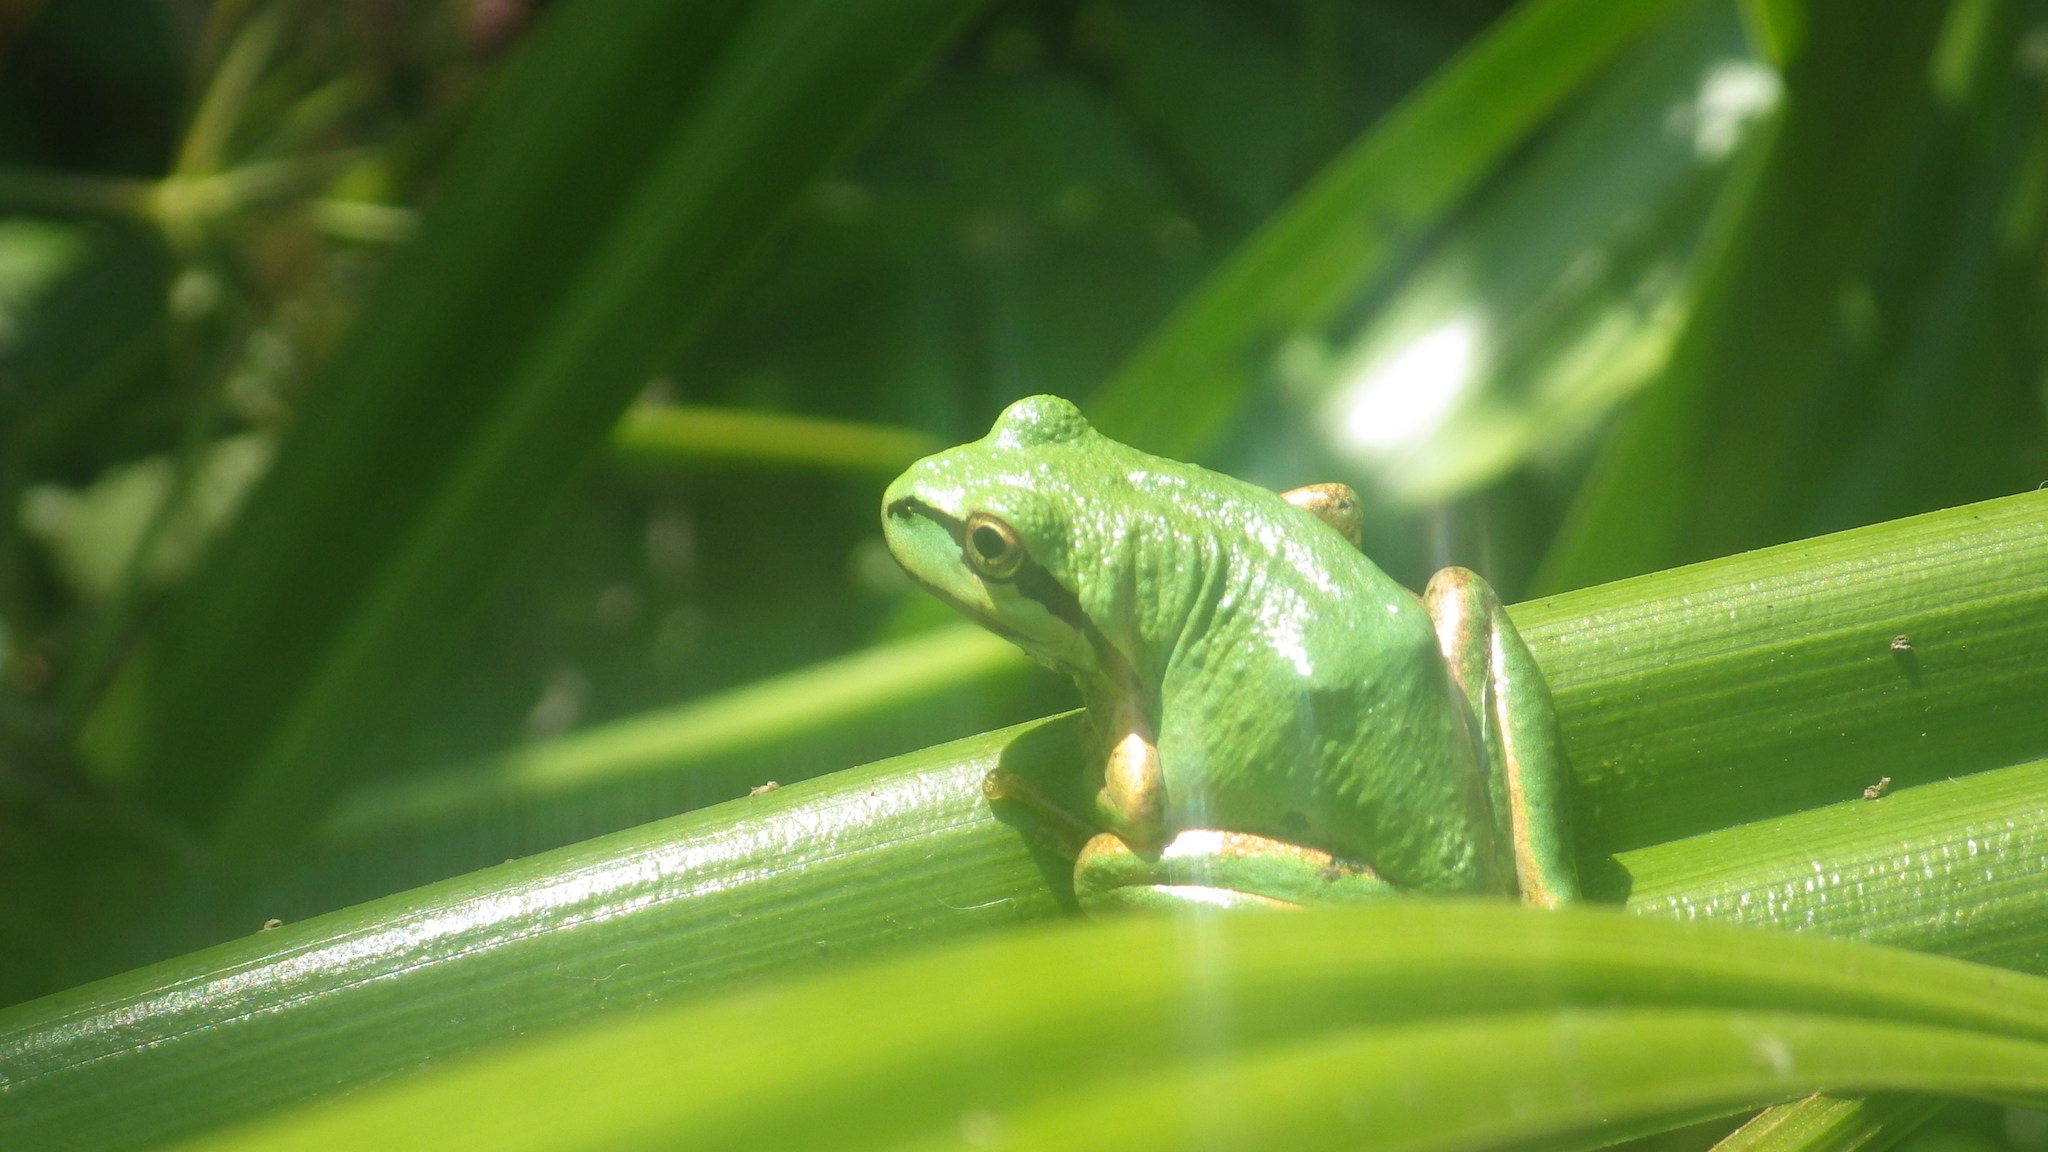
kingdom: Animalia
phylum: Chordata
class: Amphibia
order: Anura
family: Hylidae
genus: Pseudacris
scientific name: Pseudacris regilla
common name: Pacific chorus frog
